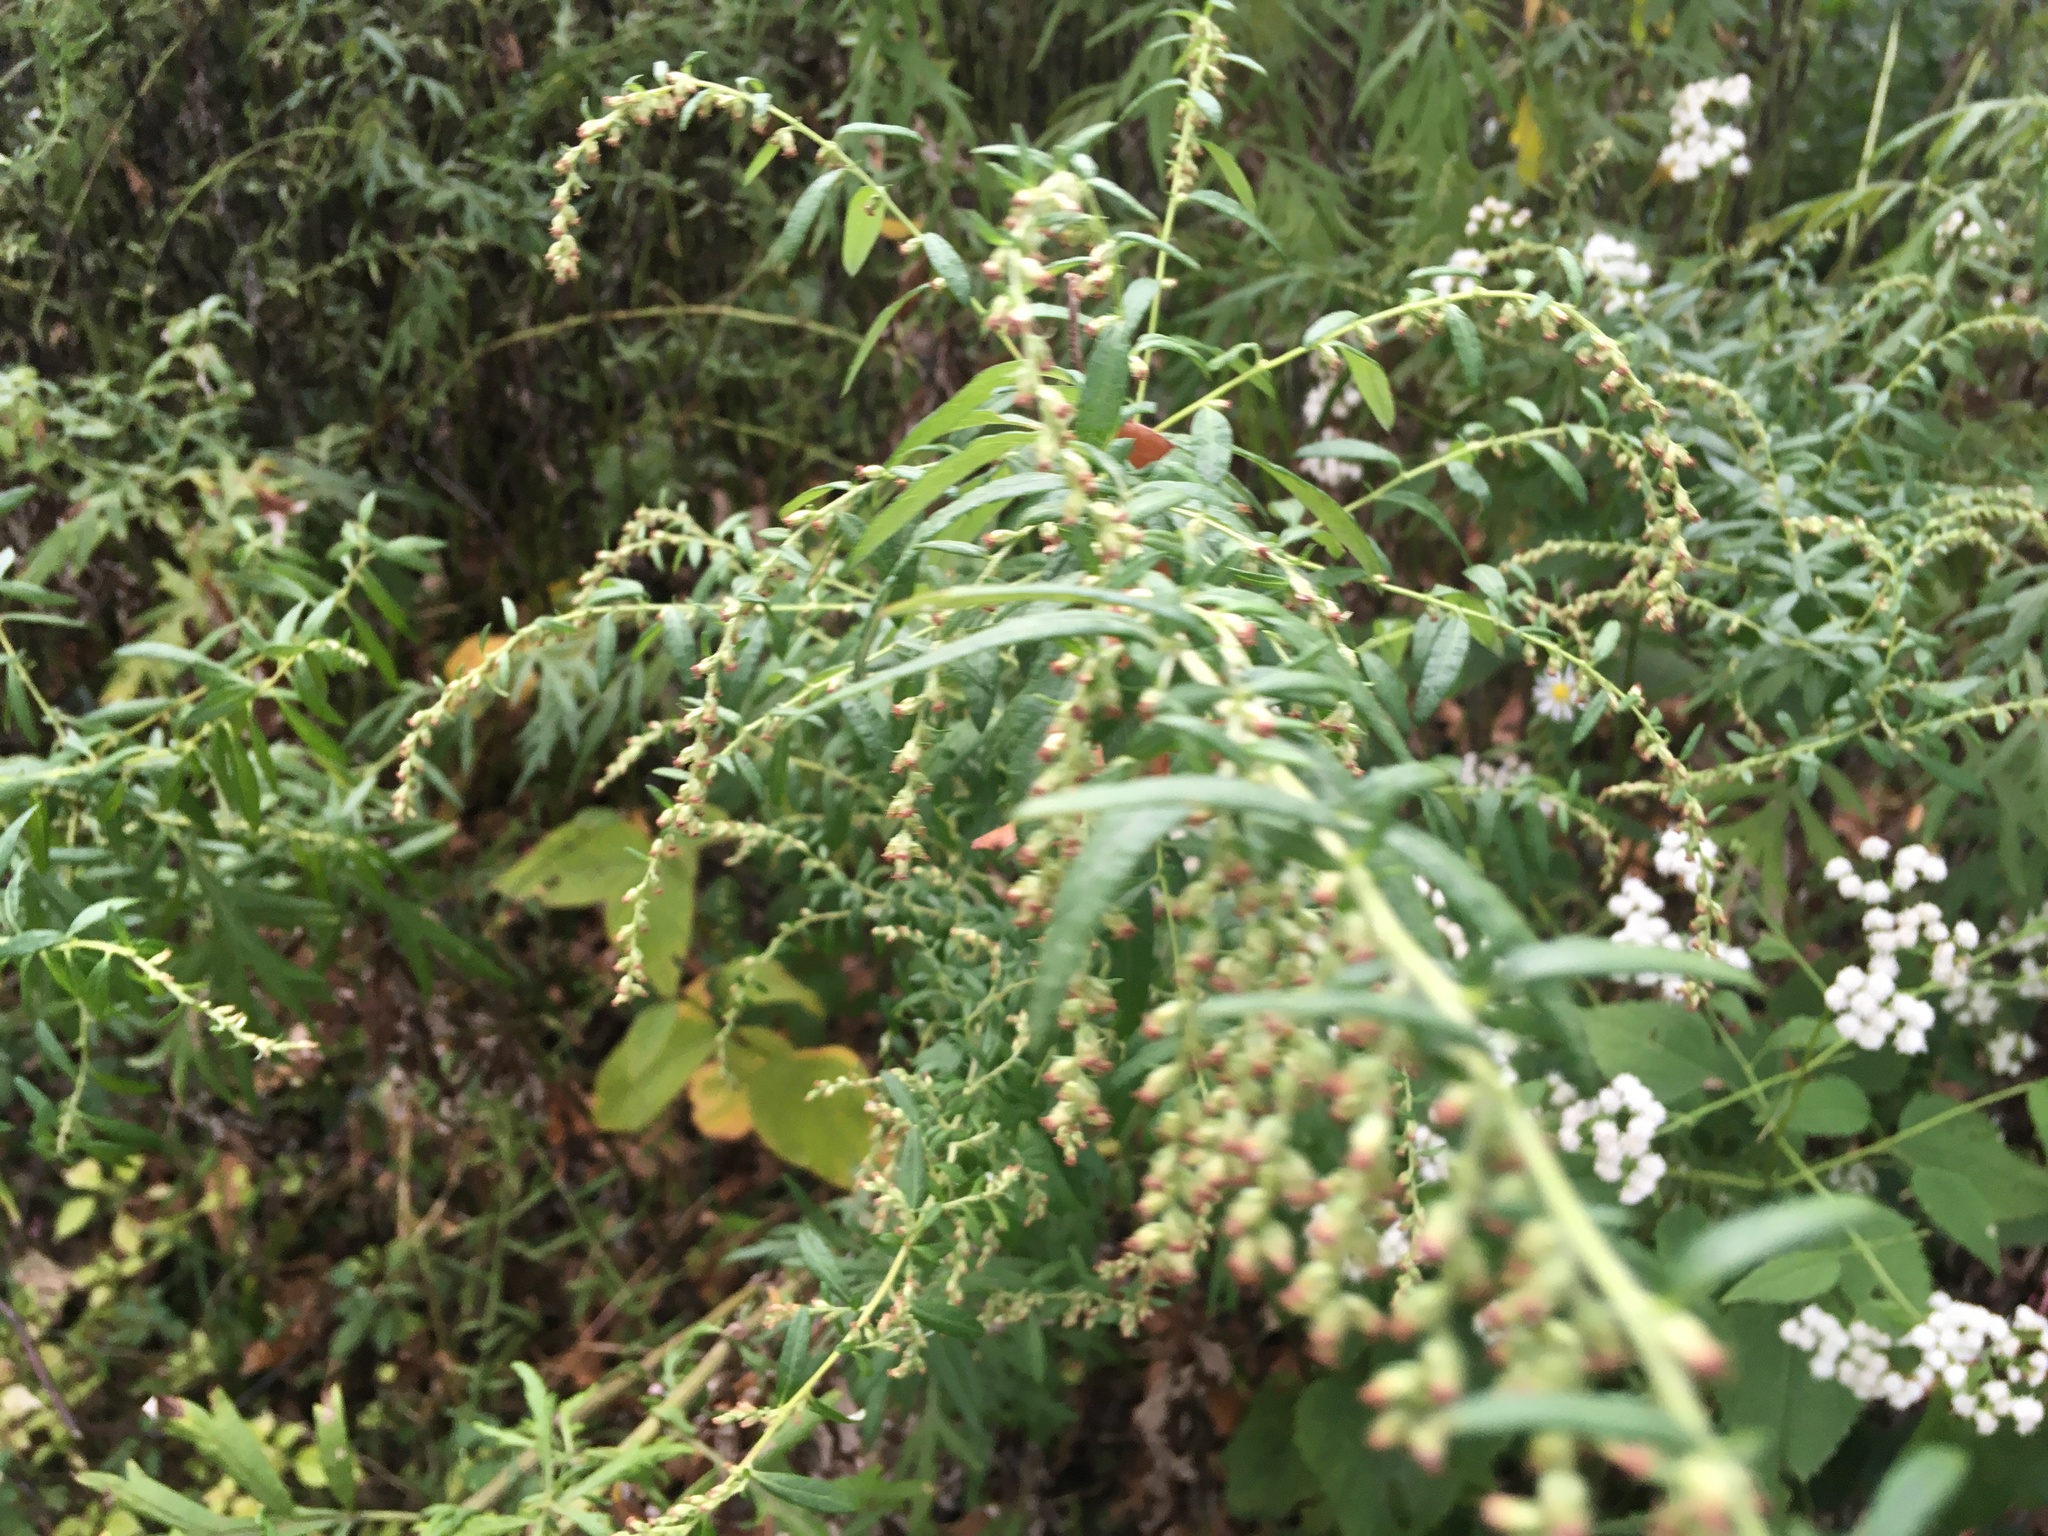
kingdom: Plantae
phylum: Tracheophyta
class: Magnoliopsida
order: Asterales
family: Asteraceae
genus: Artemisia
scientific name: Artemisia vulgaris
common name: Mugwort
